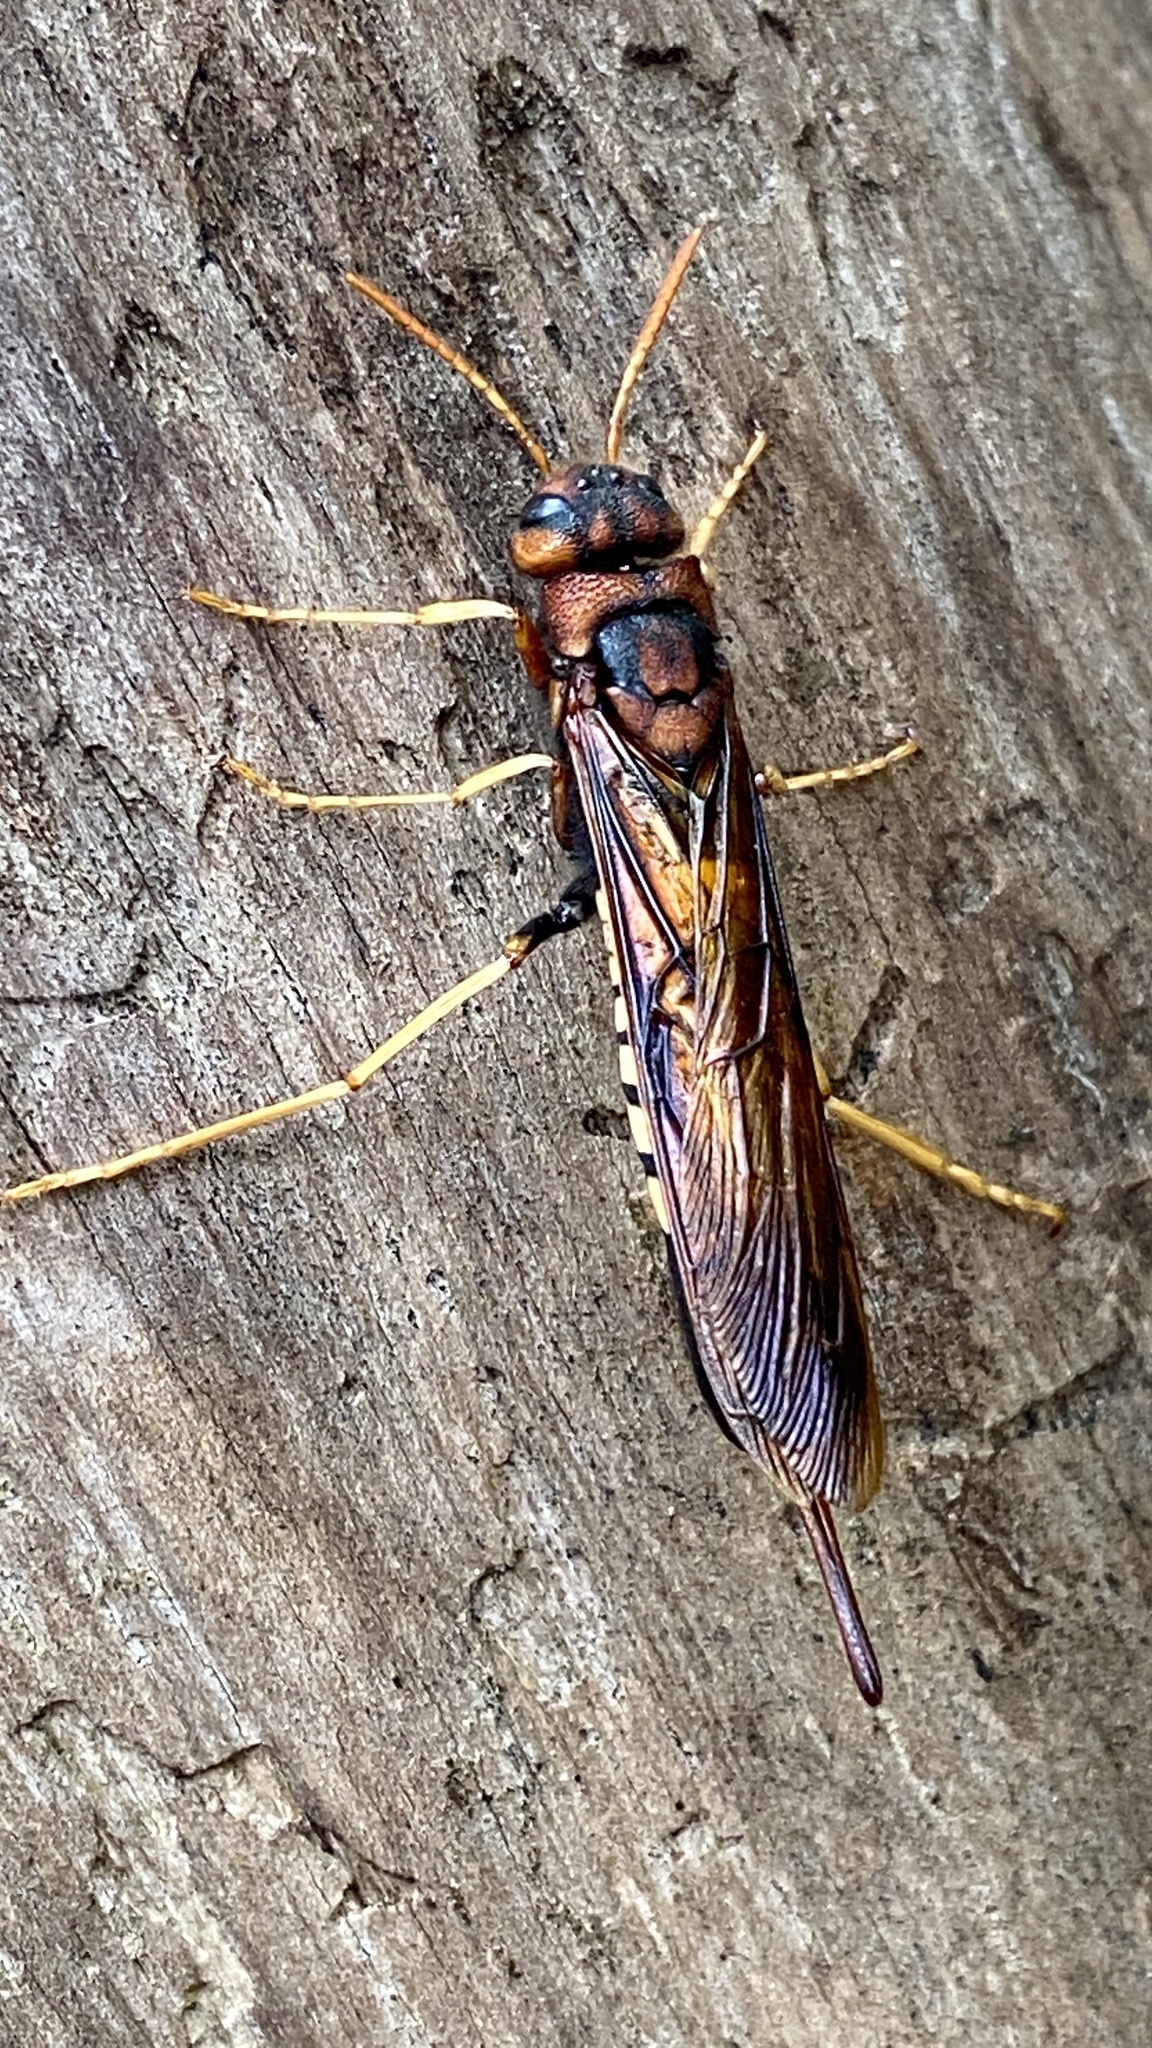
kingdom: Animalia
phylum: Arthropoda
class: Insecta
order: Hymenoptera
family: Siricidae
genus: Tremex
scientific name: Tremex columba
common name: Wasp
